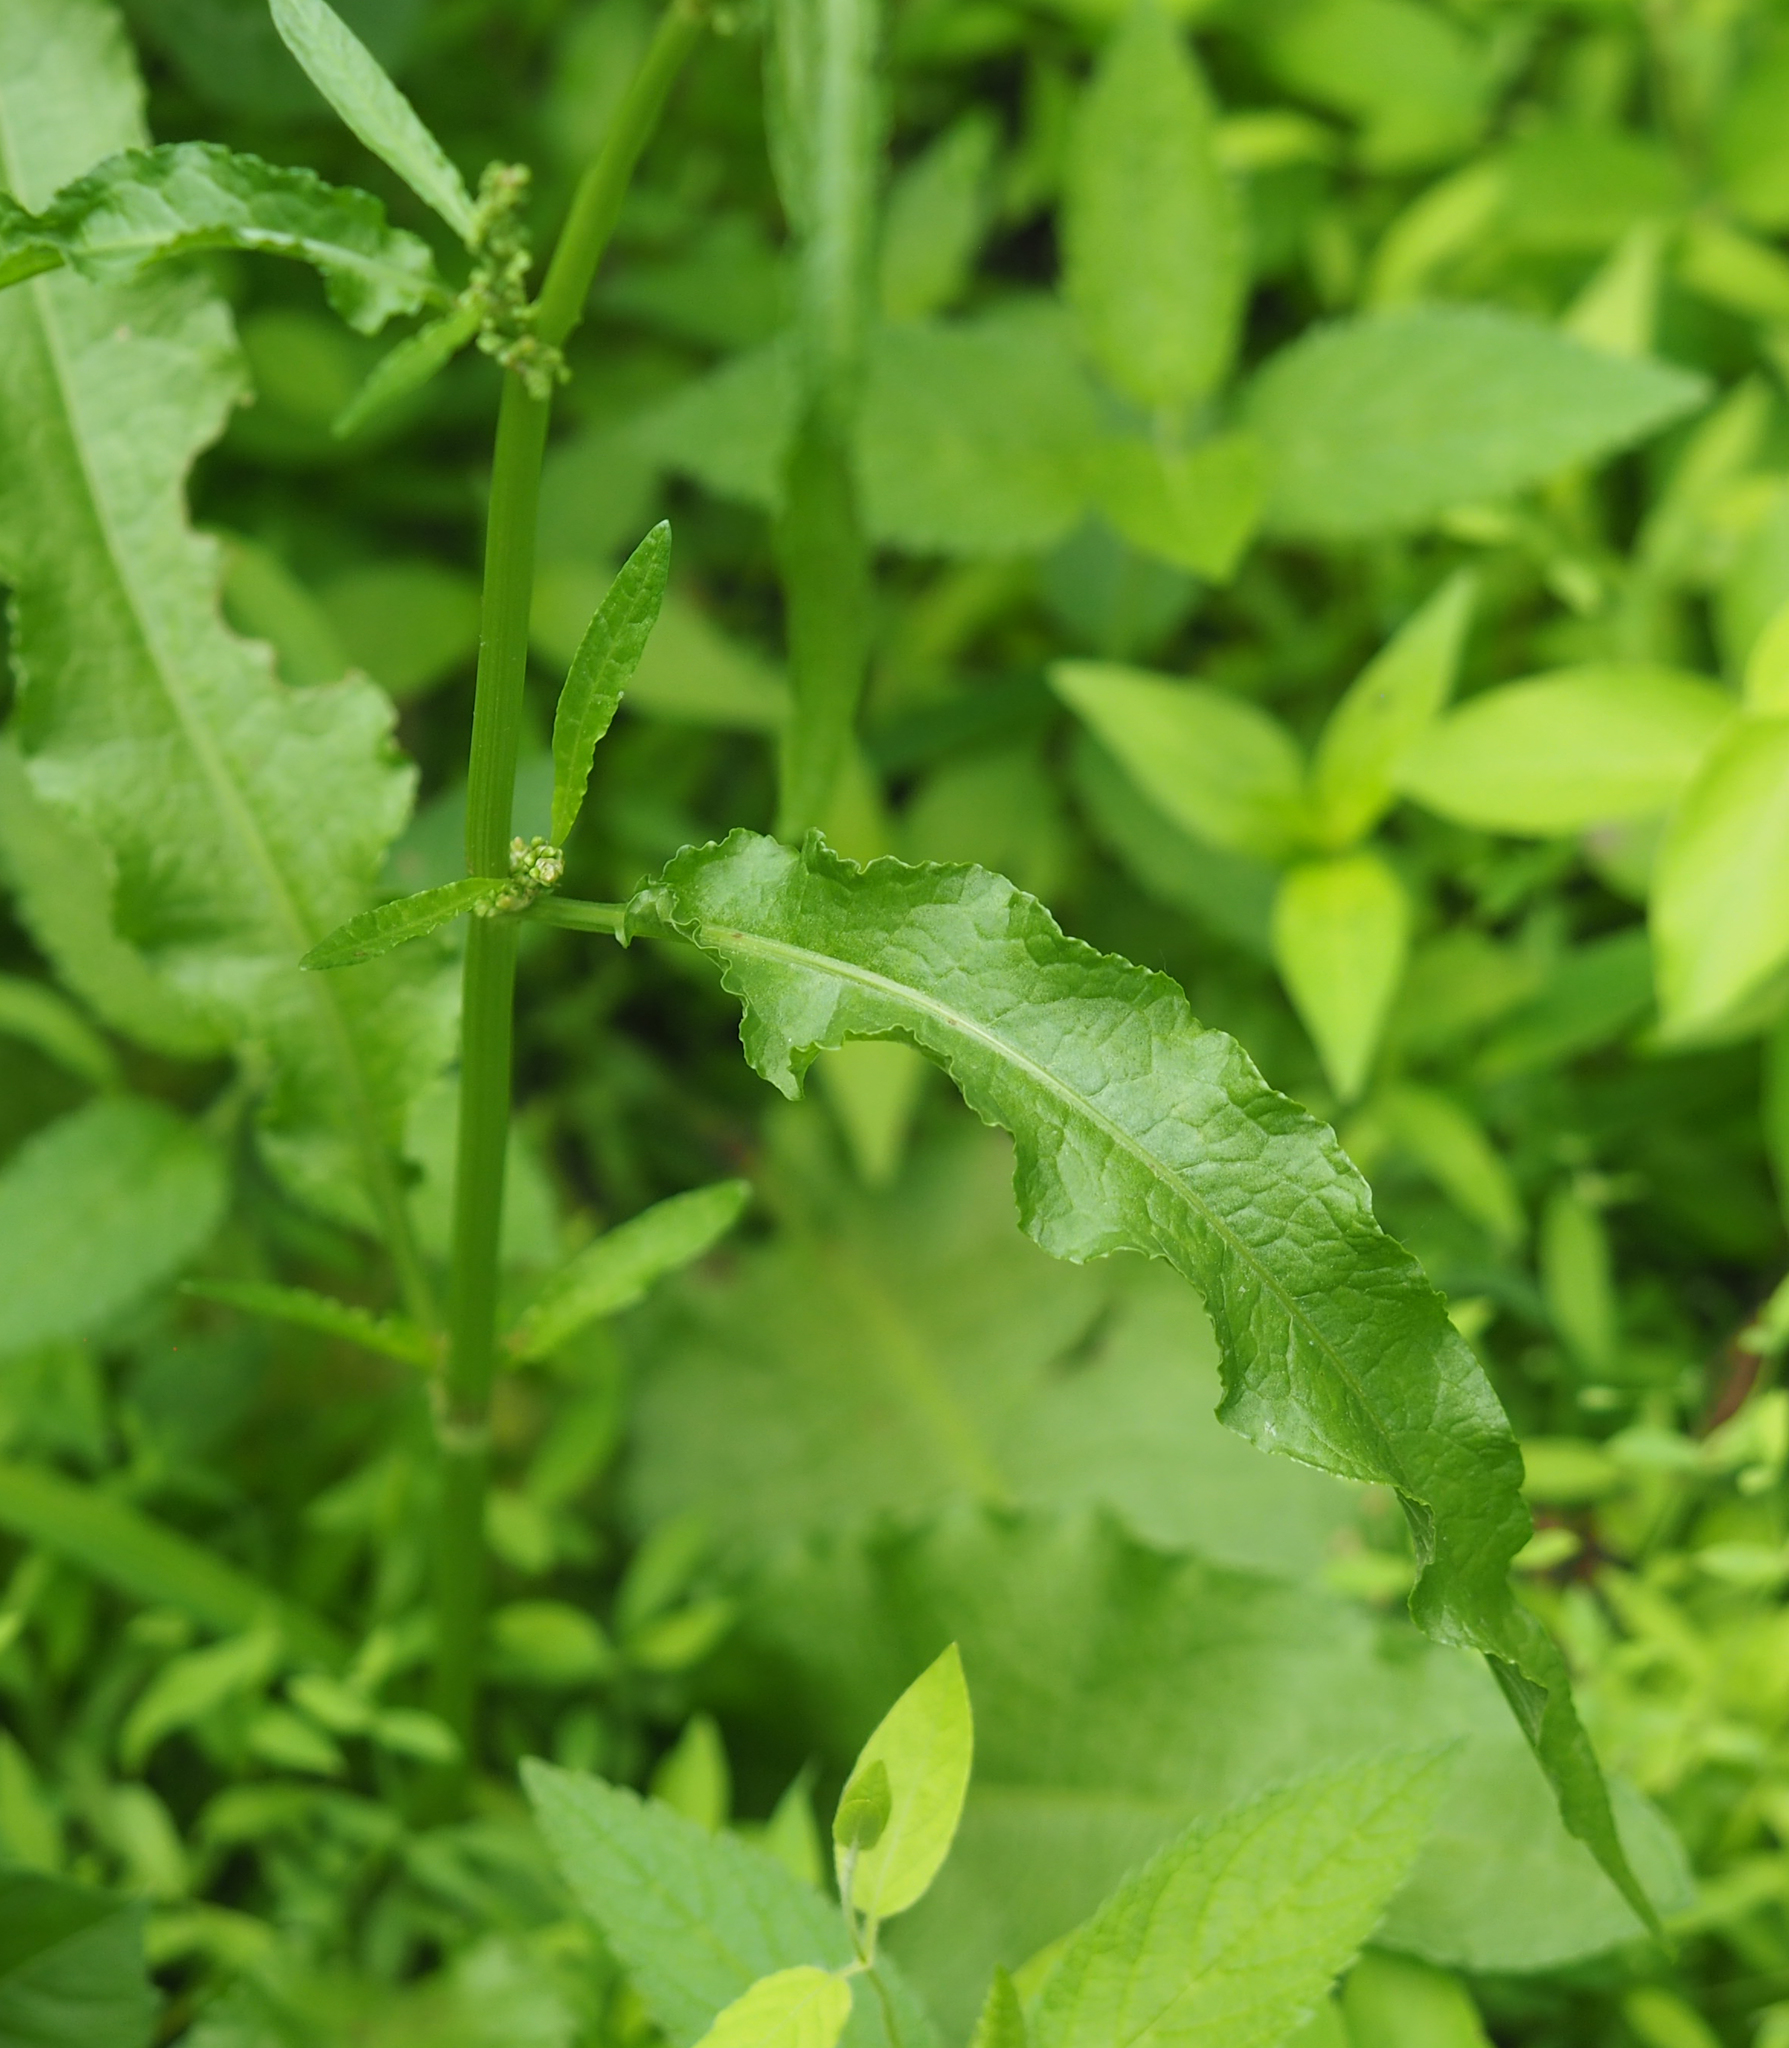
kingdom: Plantae
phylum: Tracheophyta
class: Magnoliopsida
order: Caryophyllales
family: Polygonaceae
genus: Rumex
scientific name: Rumex crispus
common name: Curled dock
